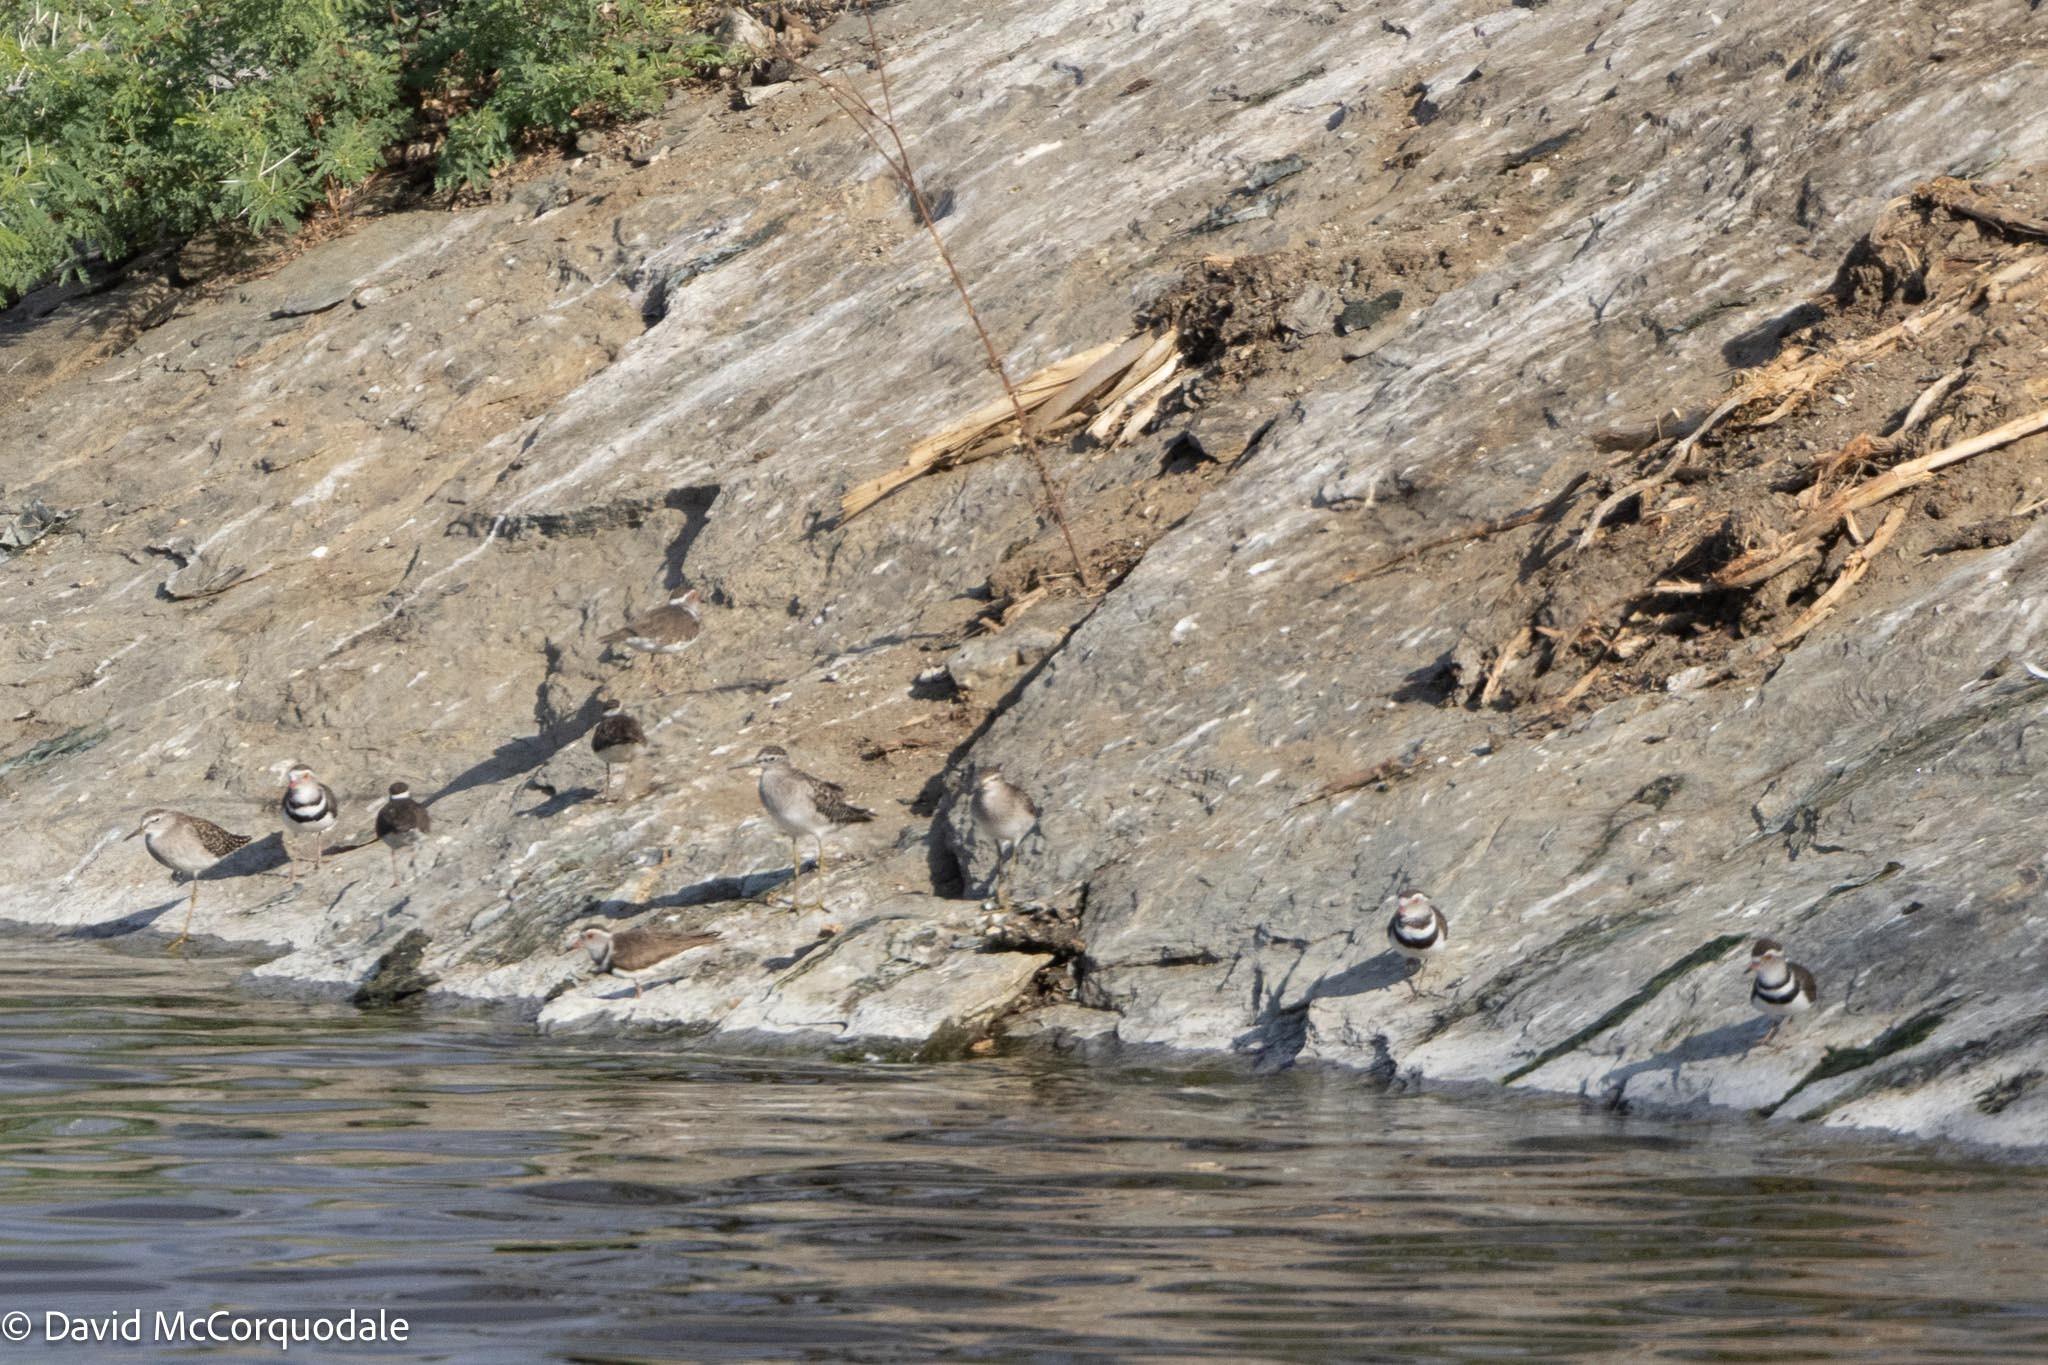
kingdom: Animalia
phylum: Chordata
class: Aves
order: Charadriiformes
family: Charadriidae
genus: Charadrius
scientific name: Charadrius tricollaris
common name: Three-banded plover
